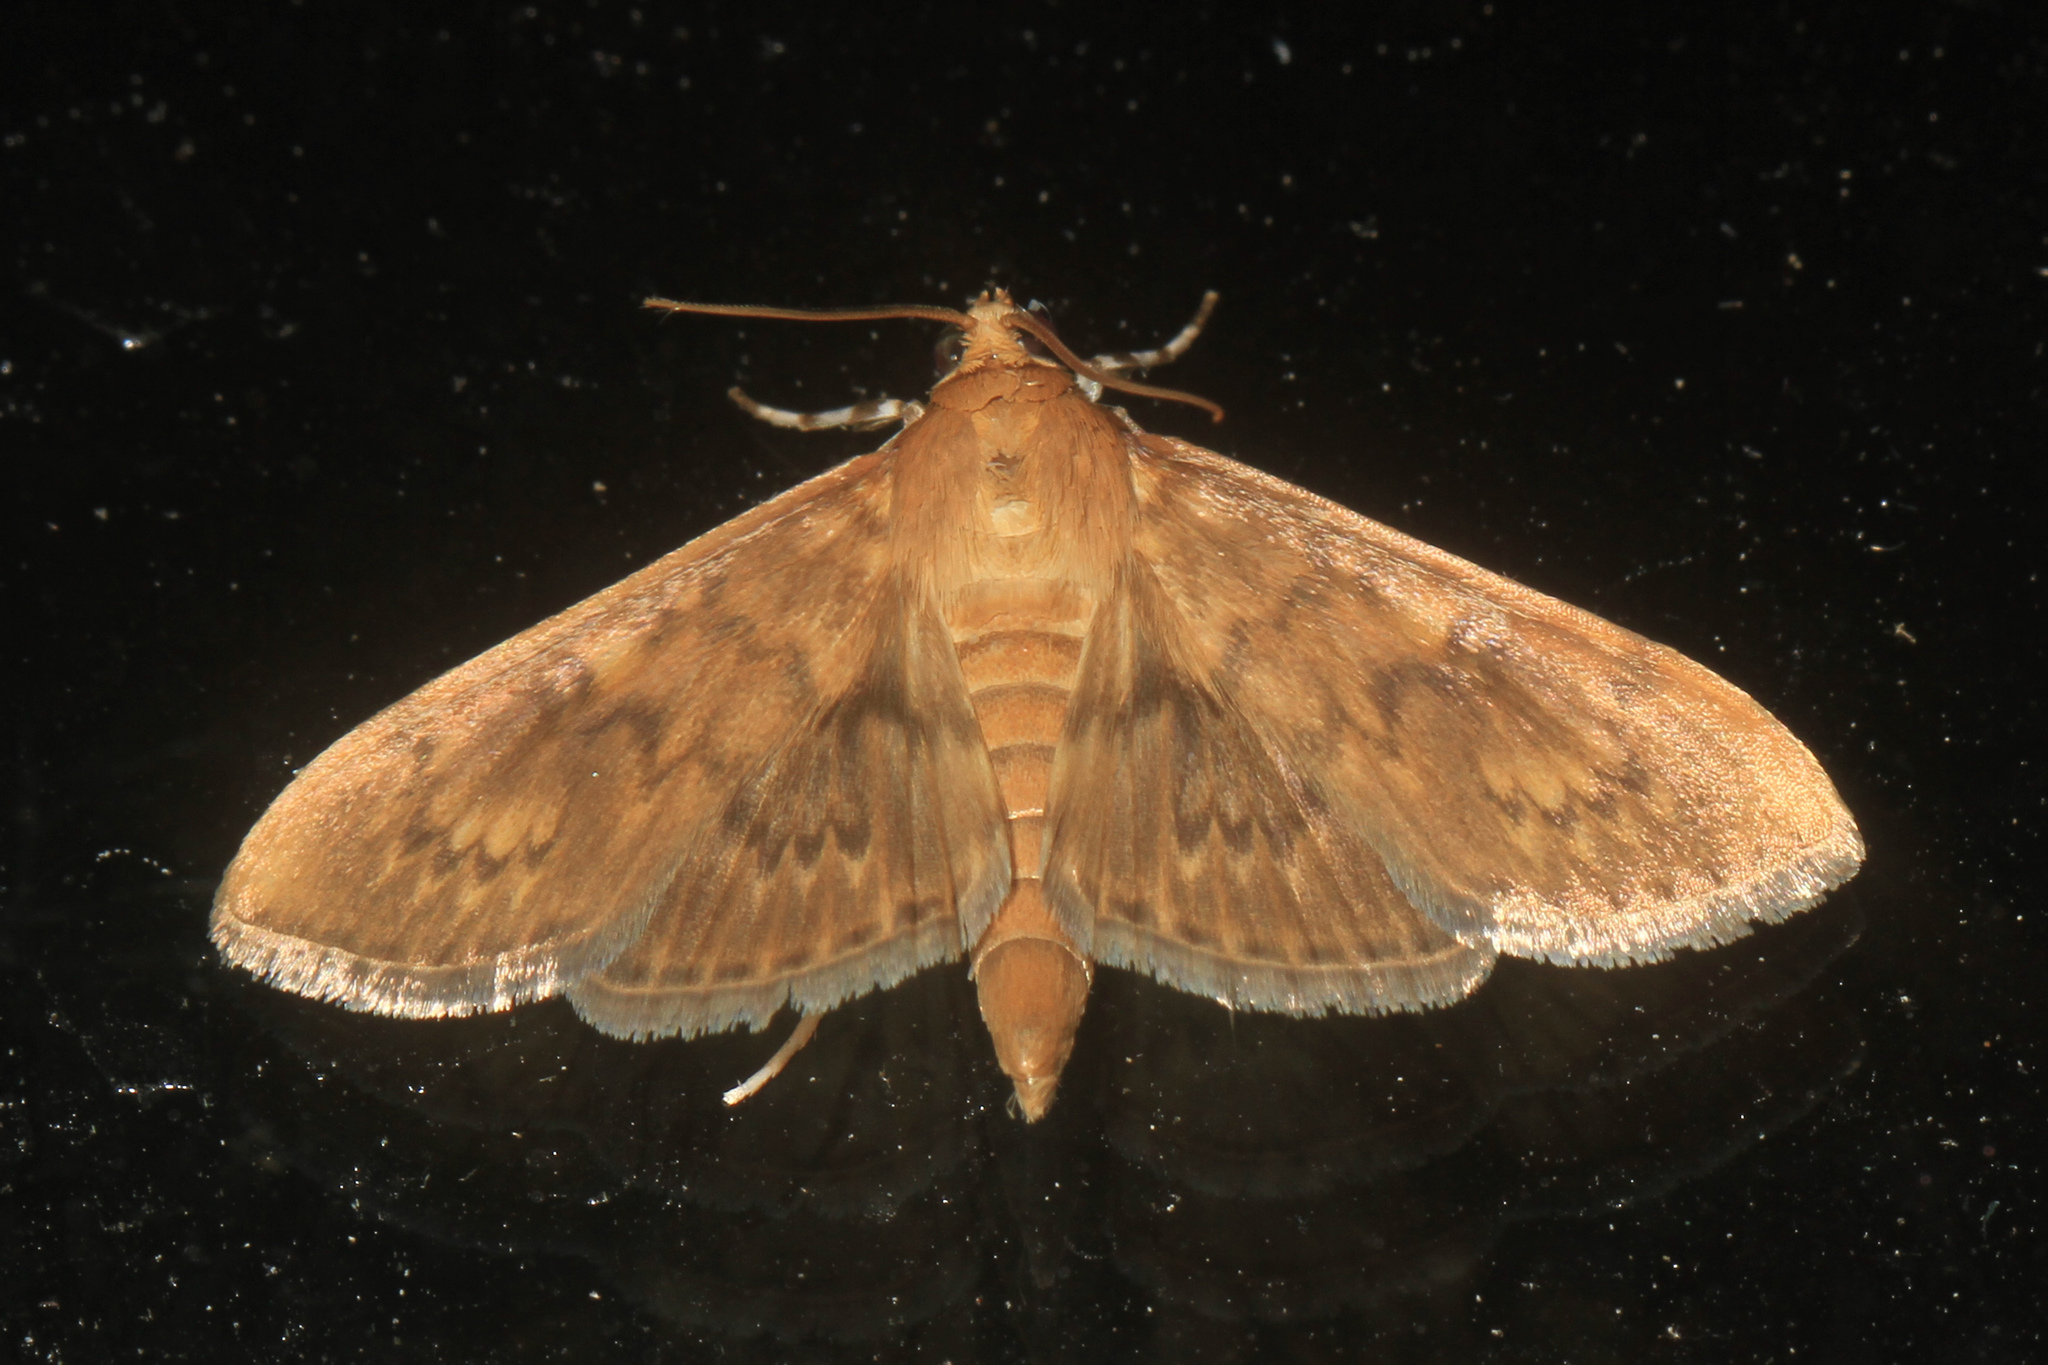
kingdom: Animalia
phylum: Arthropoda
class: Insecta
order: Lepidoptera
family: Crambidae
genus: Syllepte
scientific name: Syllepte obscuralis
